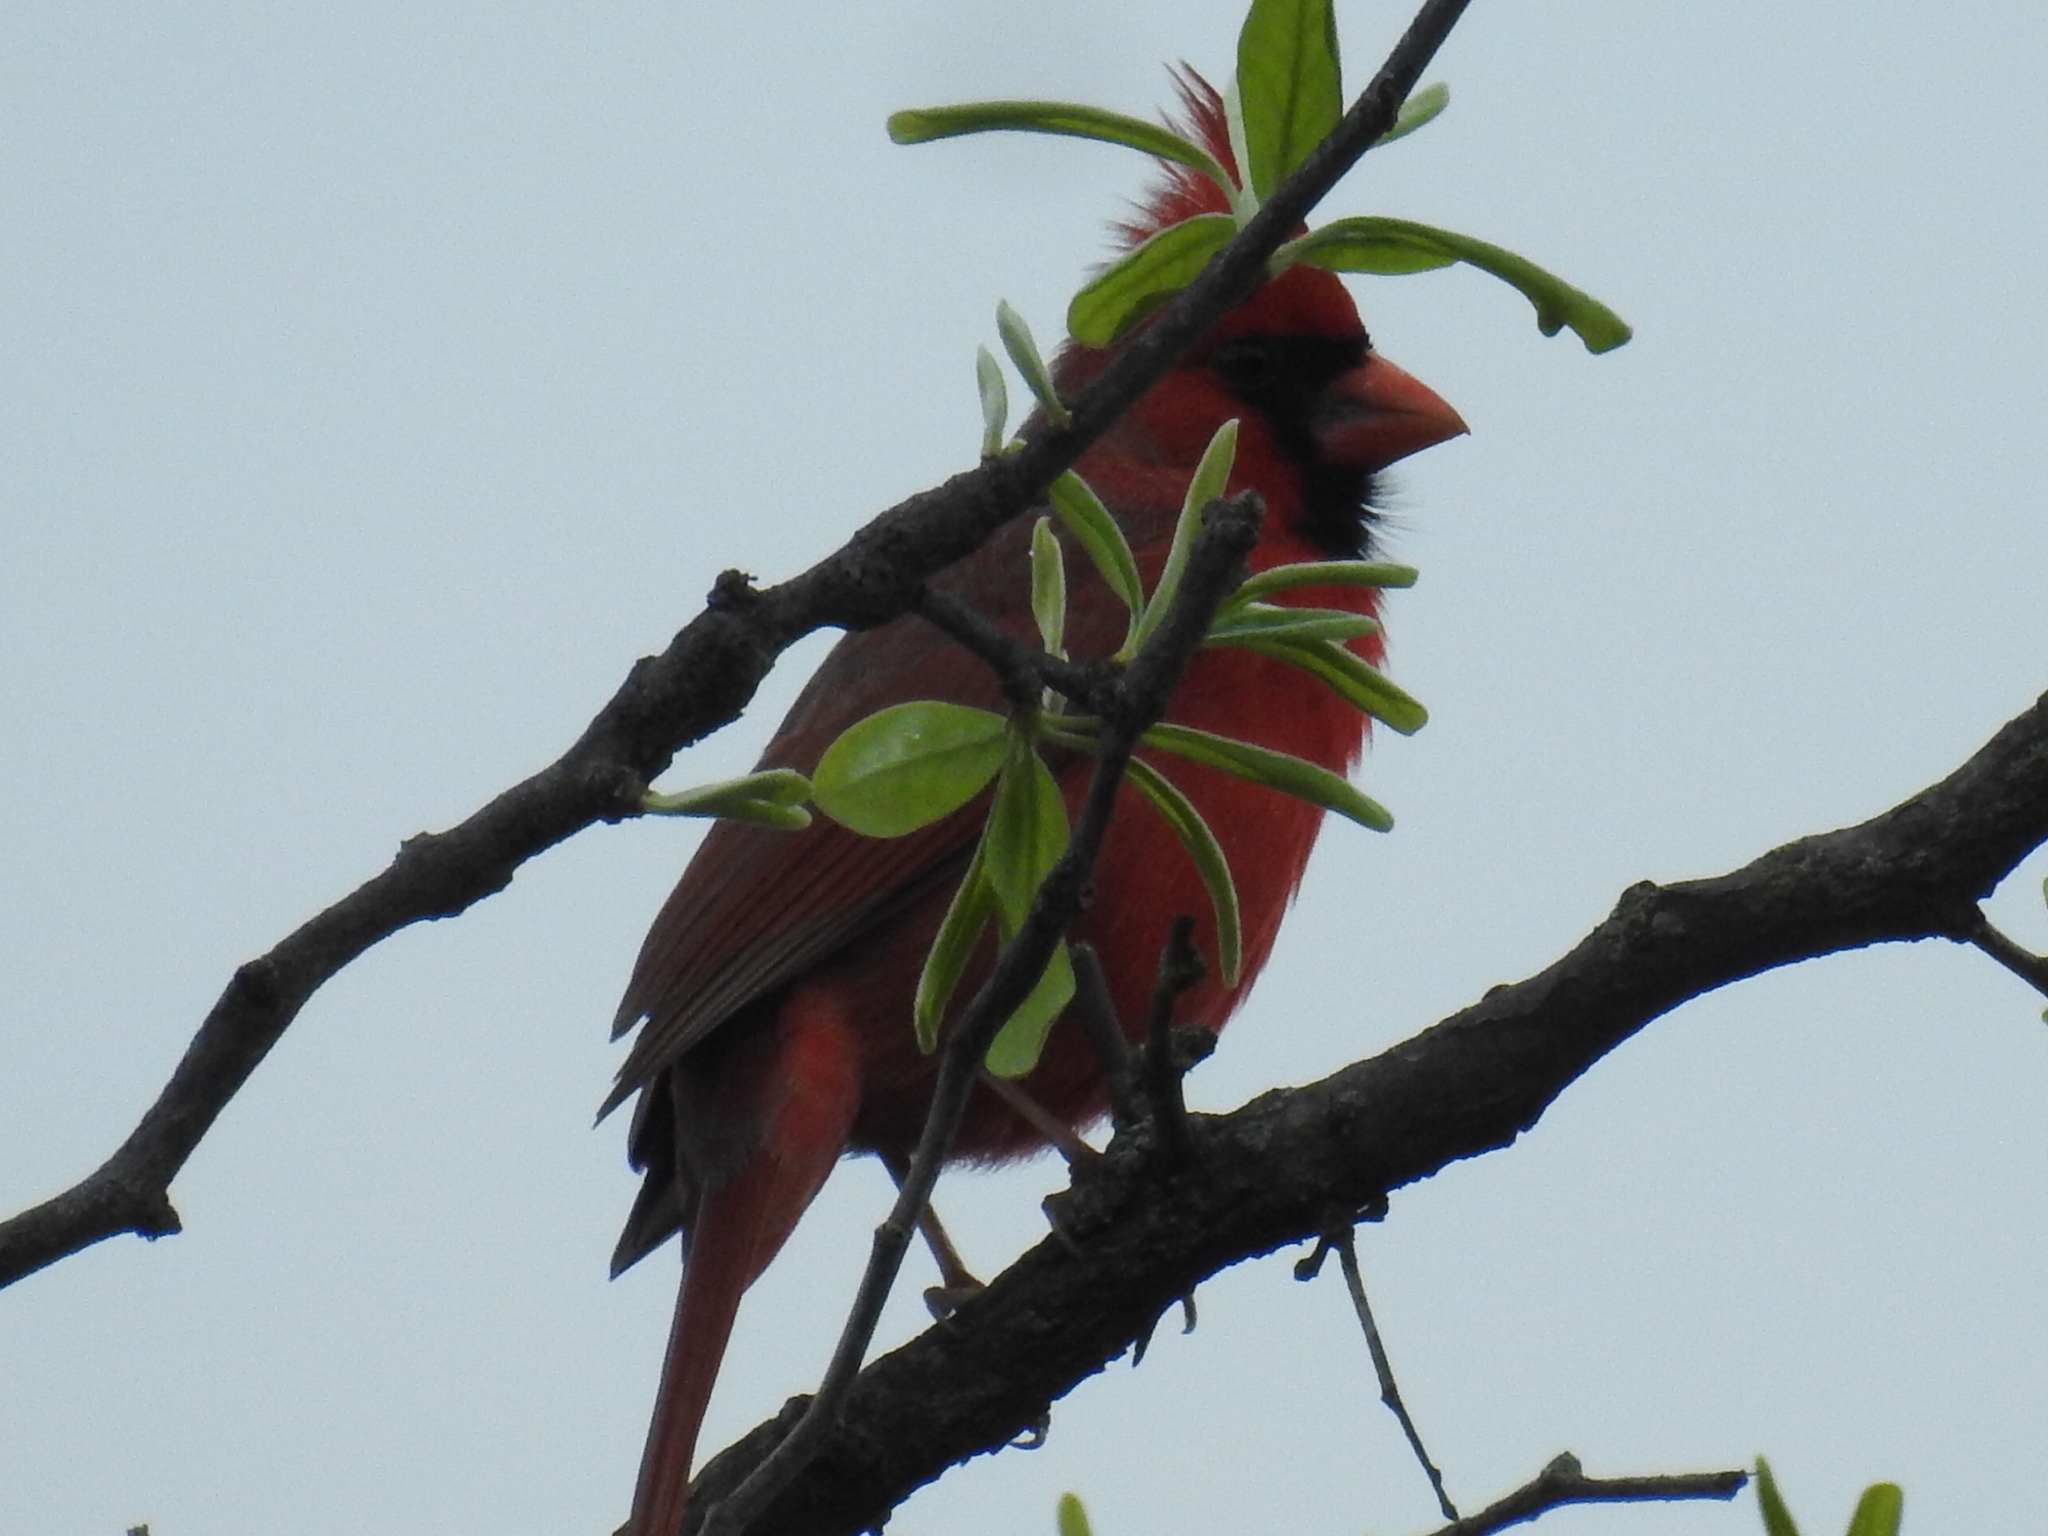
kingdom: Animalia
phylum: Chordata
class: Aves
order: Passeriformes
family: Cardinalidae
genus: Cardinalis
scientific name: Cardinalis cardinalis
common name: Northern cardinal
